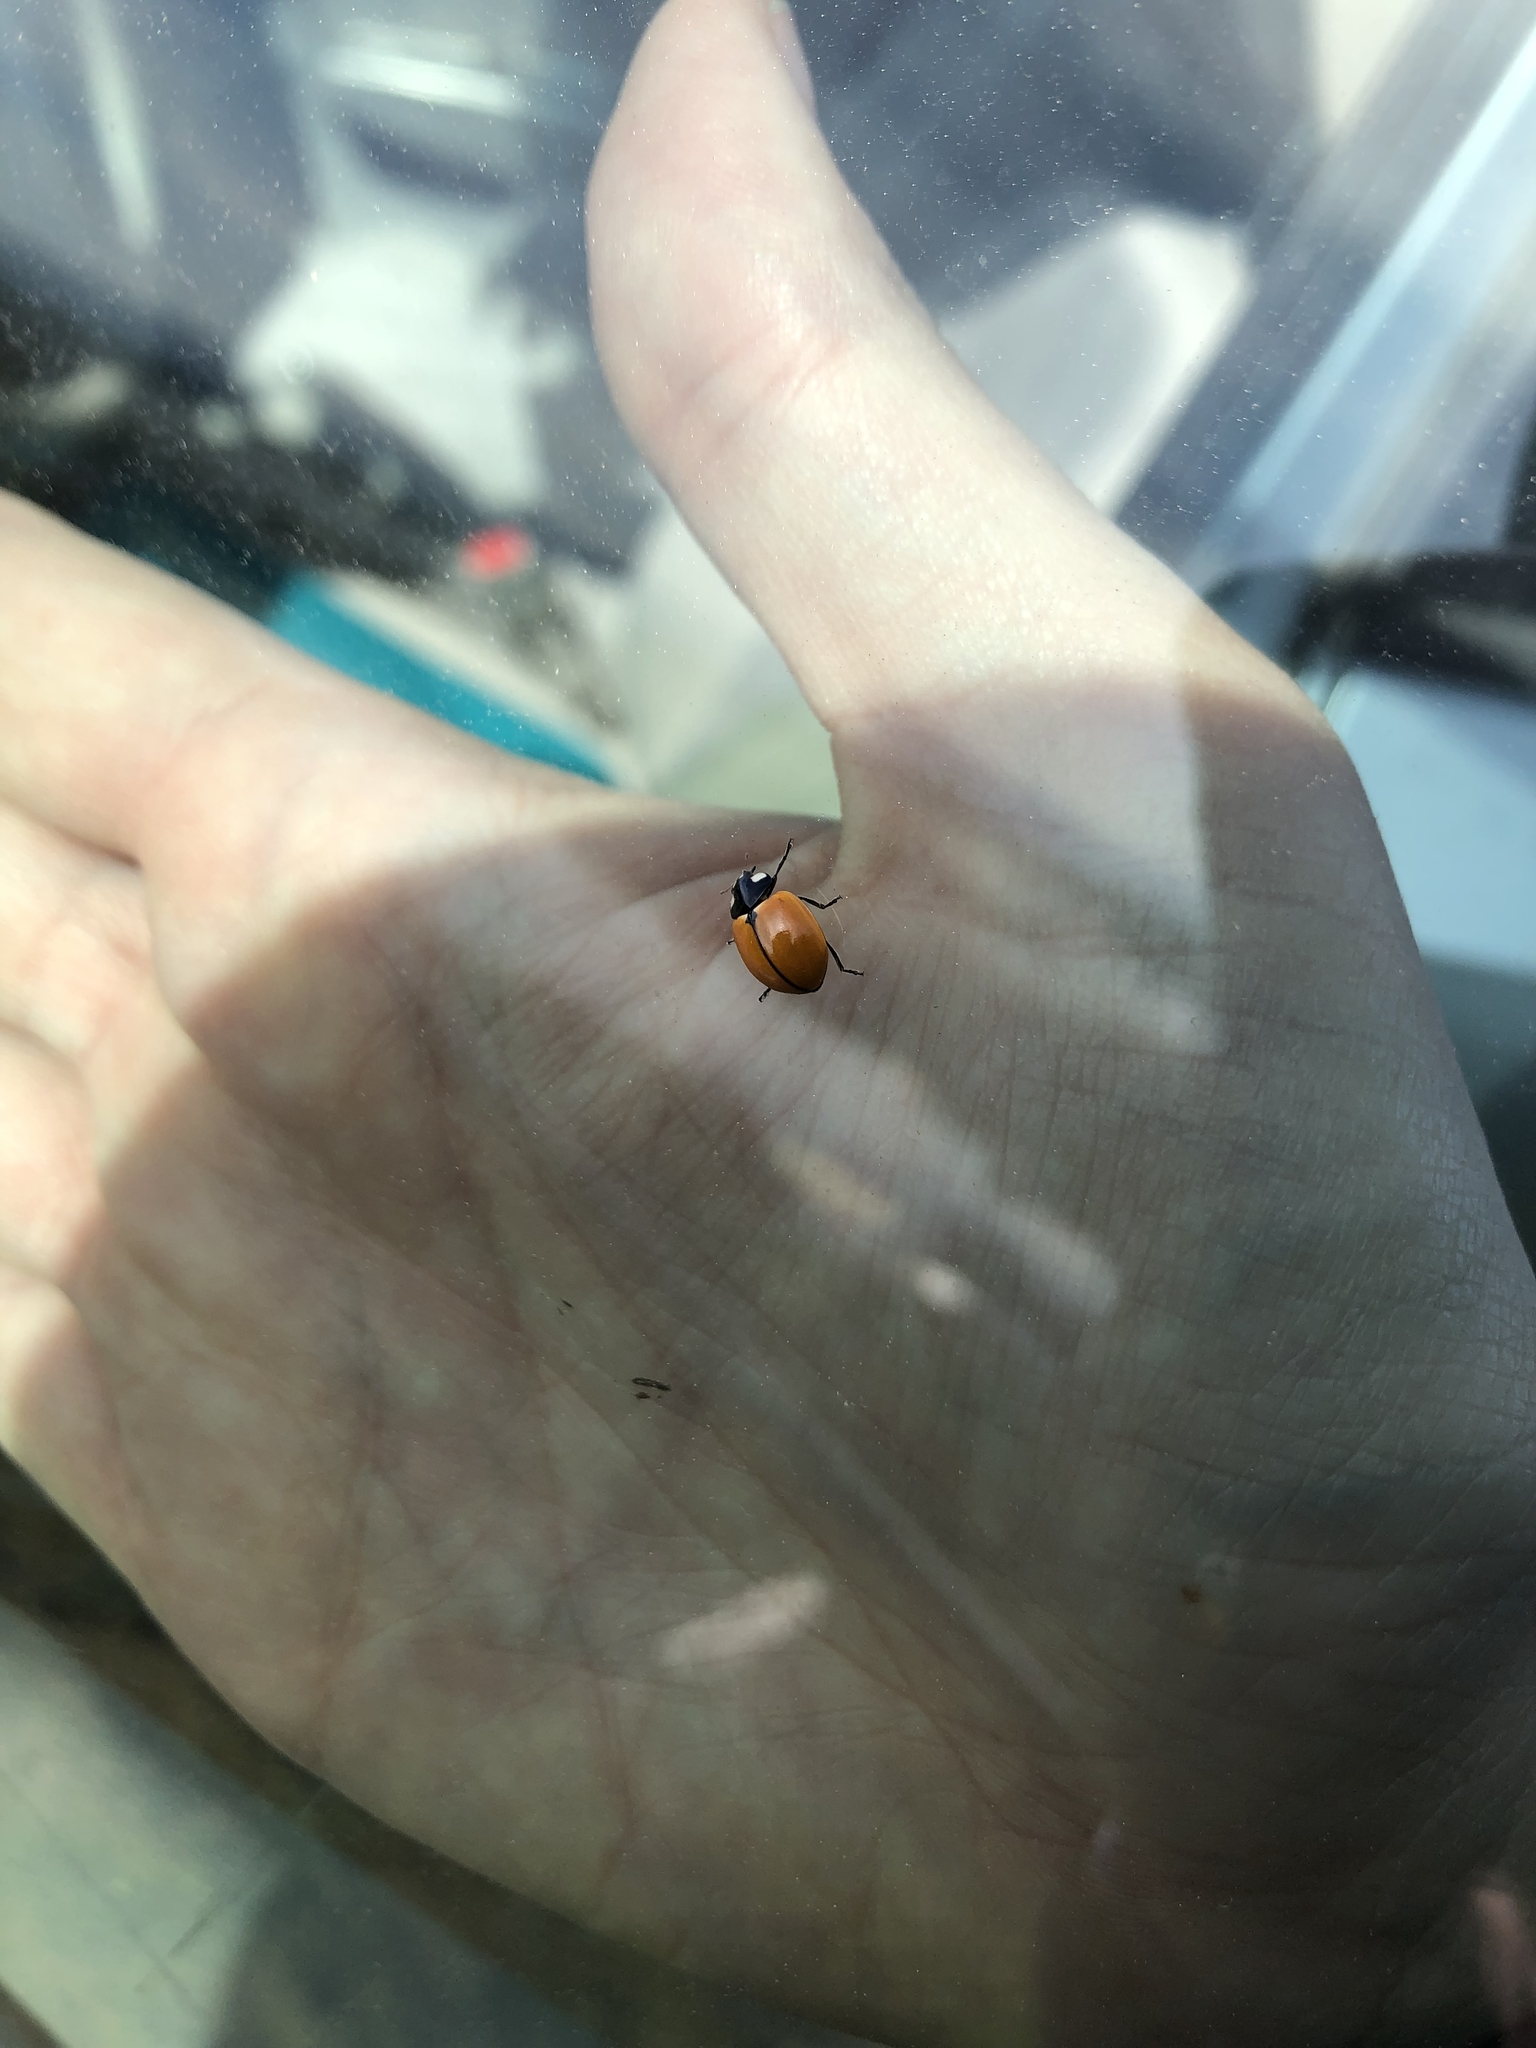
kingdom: Animalia
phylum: Arthropoda
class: Insecta
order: Coleoptera
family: Coccinellidae
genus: Coccinella
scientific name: Coccinella californica
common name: Lady beetle
